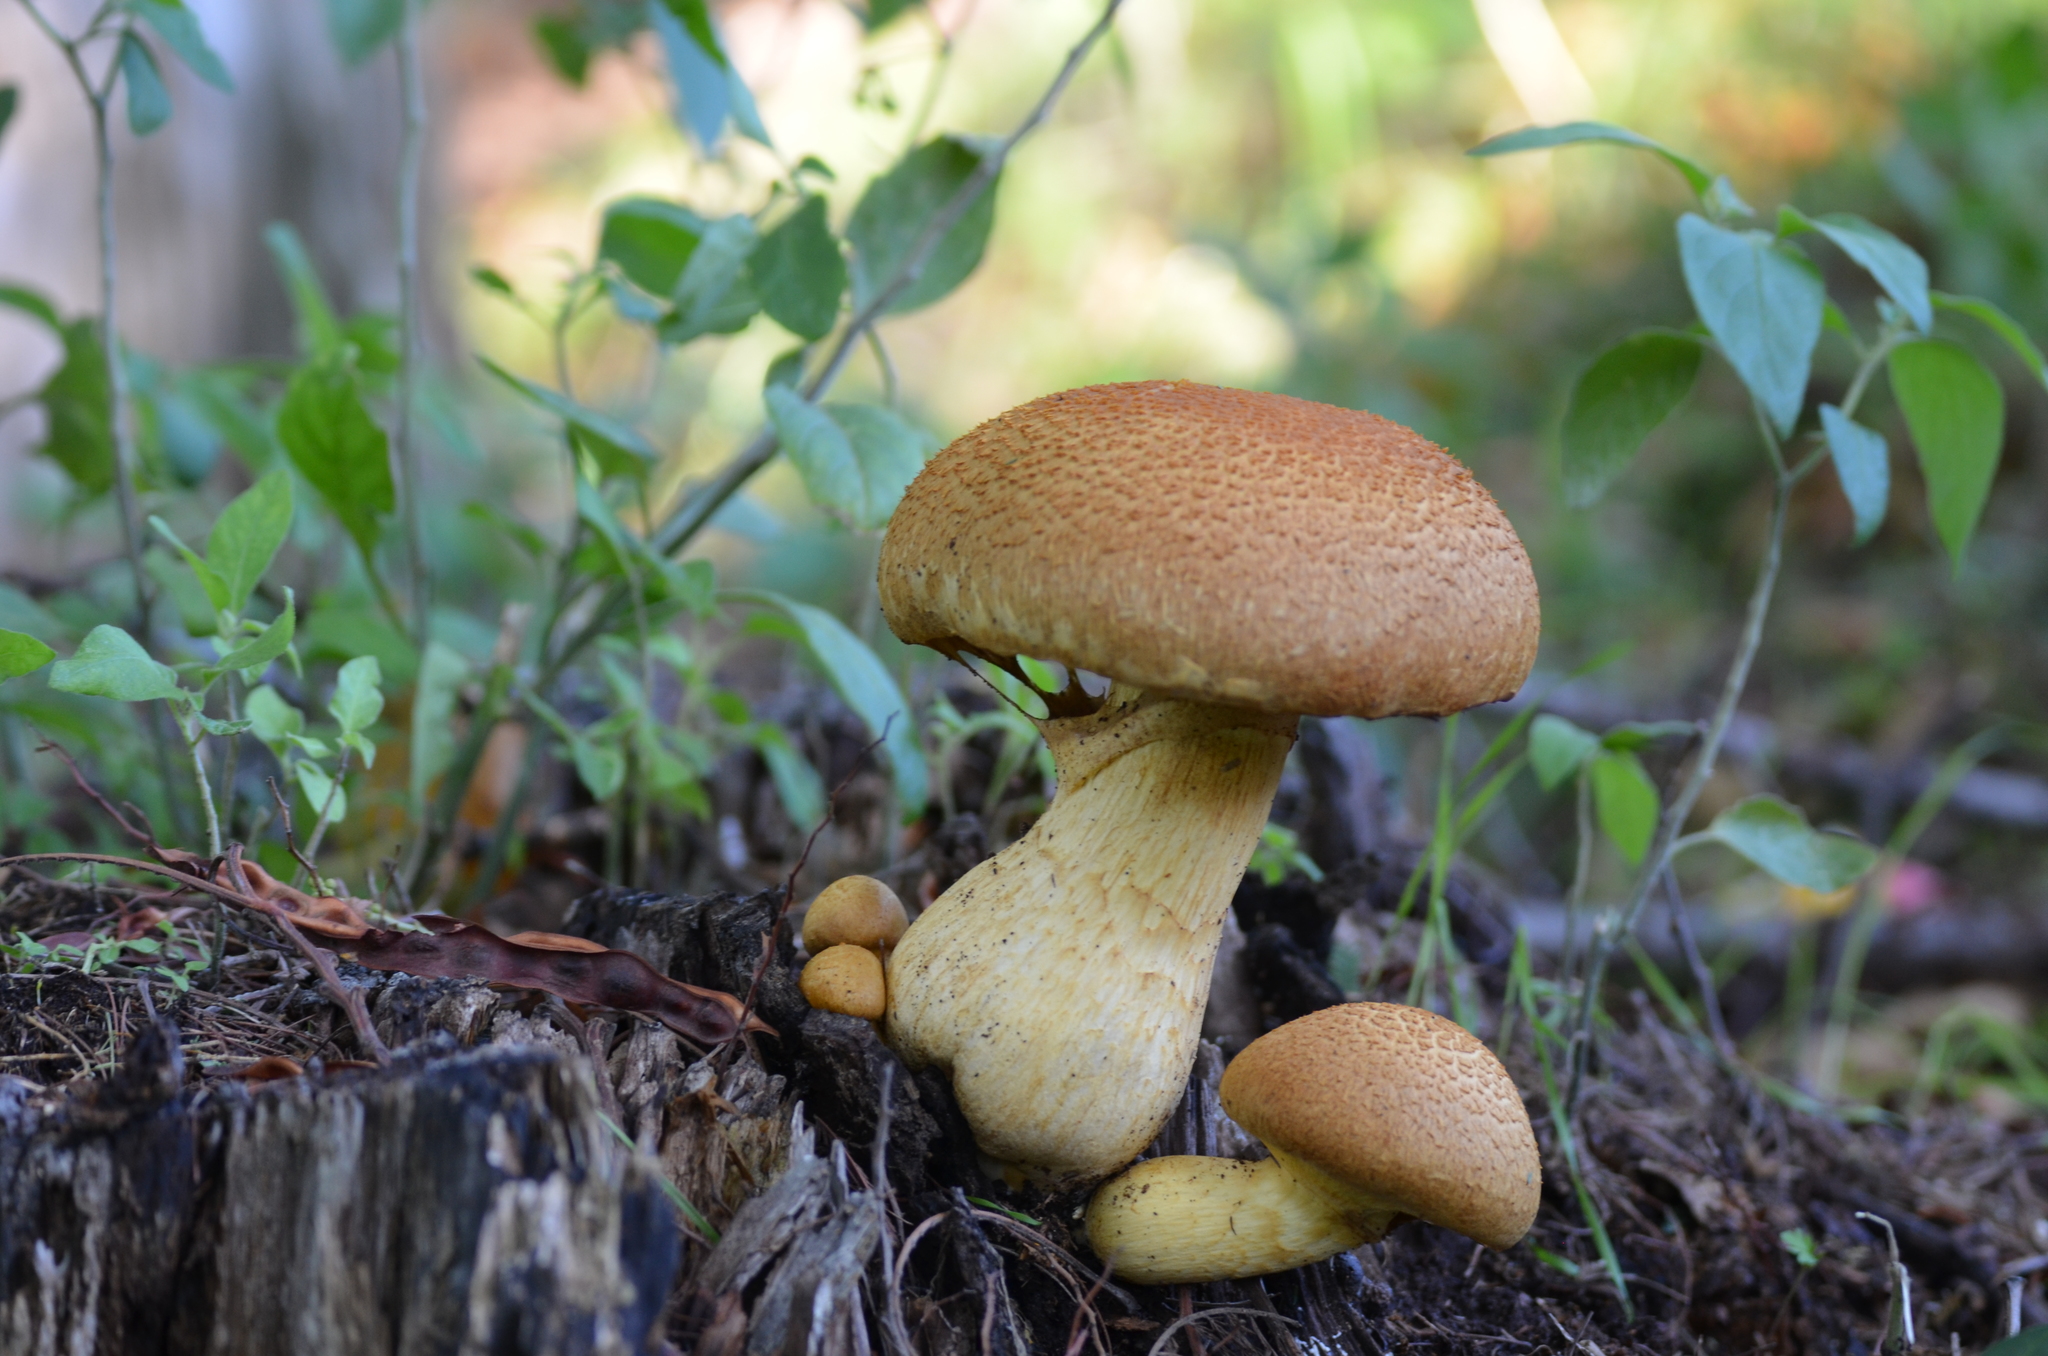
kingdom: Fungi
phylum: Basidiomycota
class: Agaricomycetes
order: Agaricales
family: Hymenogastraceae
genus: Gymnopilus
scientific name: Gymnopilus junonius
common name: Spectacular rustgill
